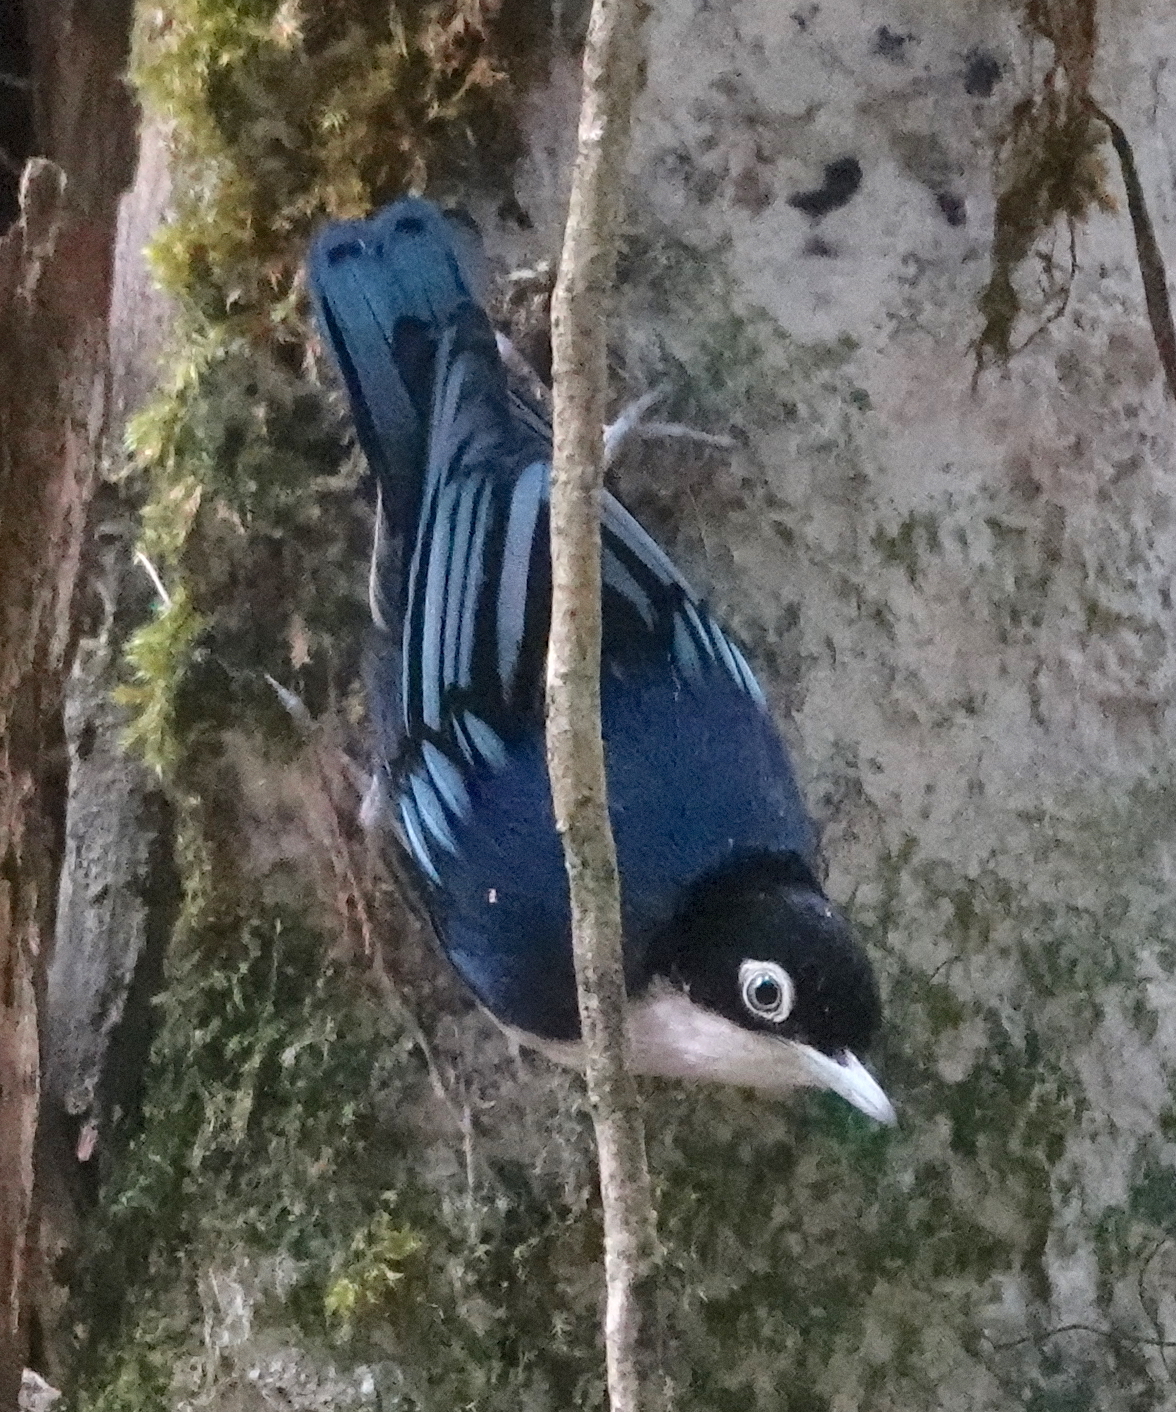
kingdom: Animalia
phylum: Chordata
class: Aves
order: Passeriformes
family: Sittidae
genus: Sitta
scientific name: Sitta azurea
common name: Blue nuthatch
